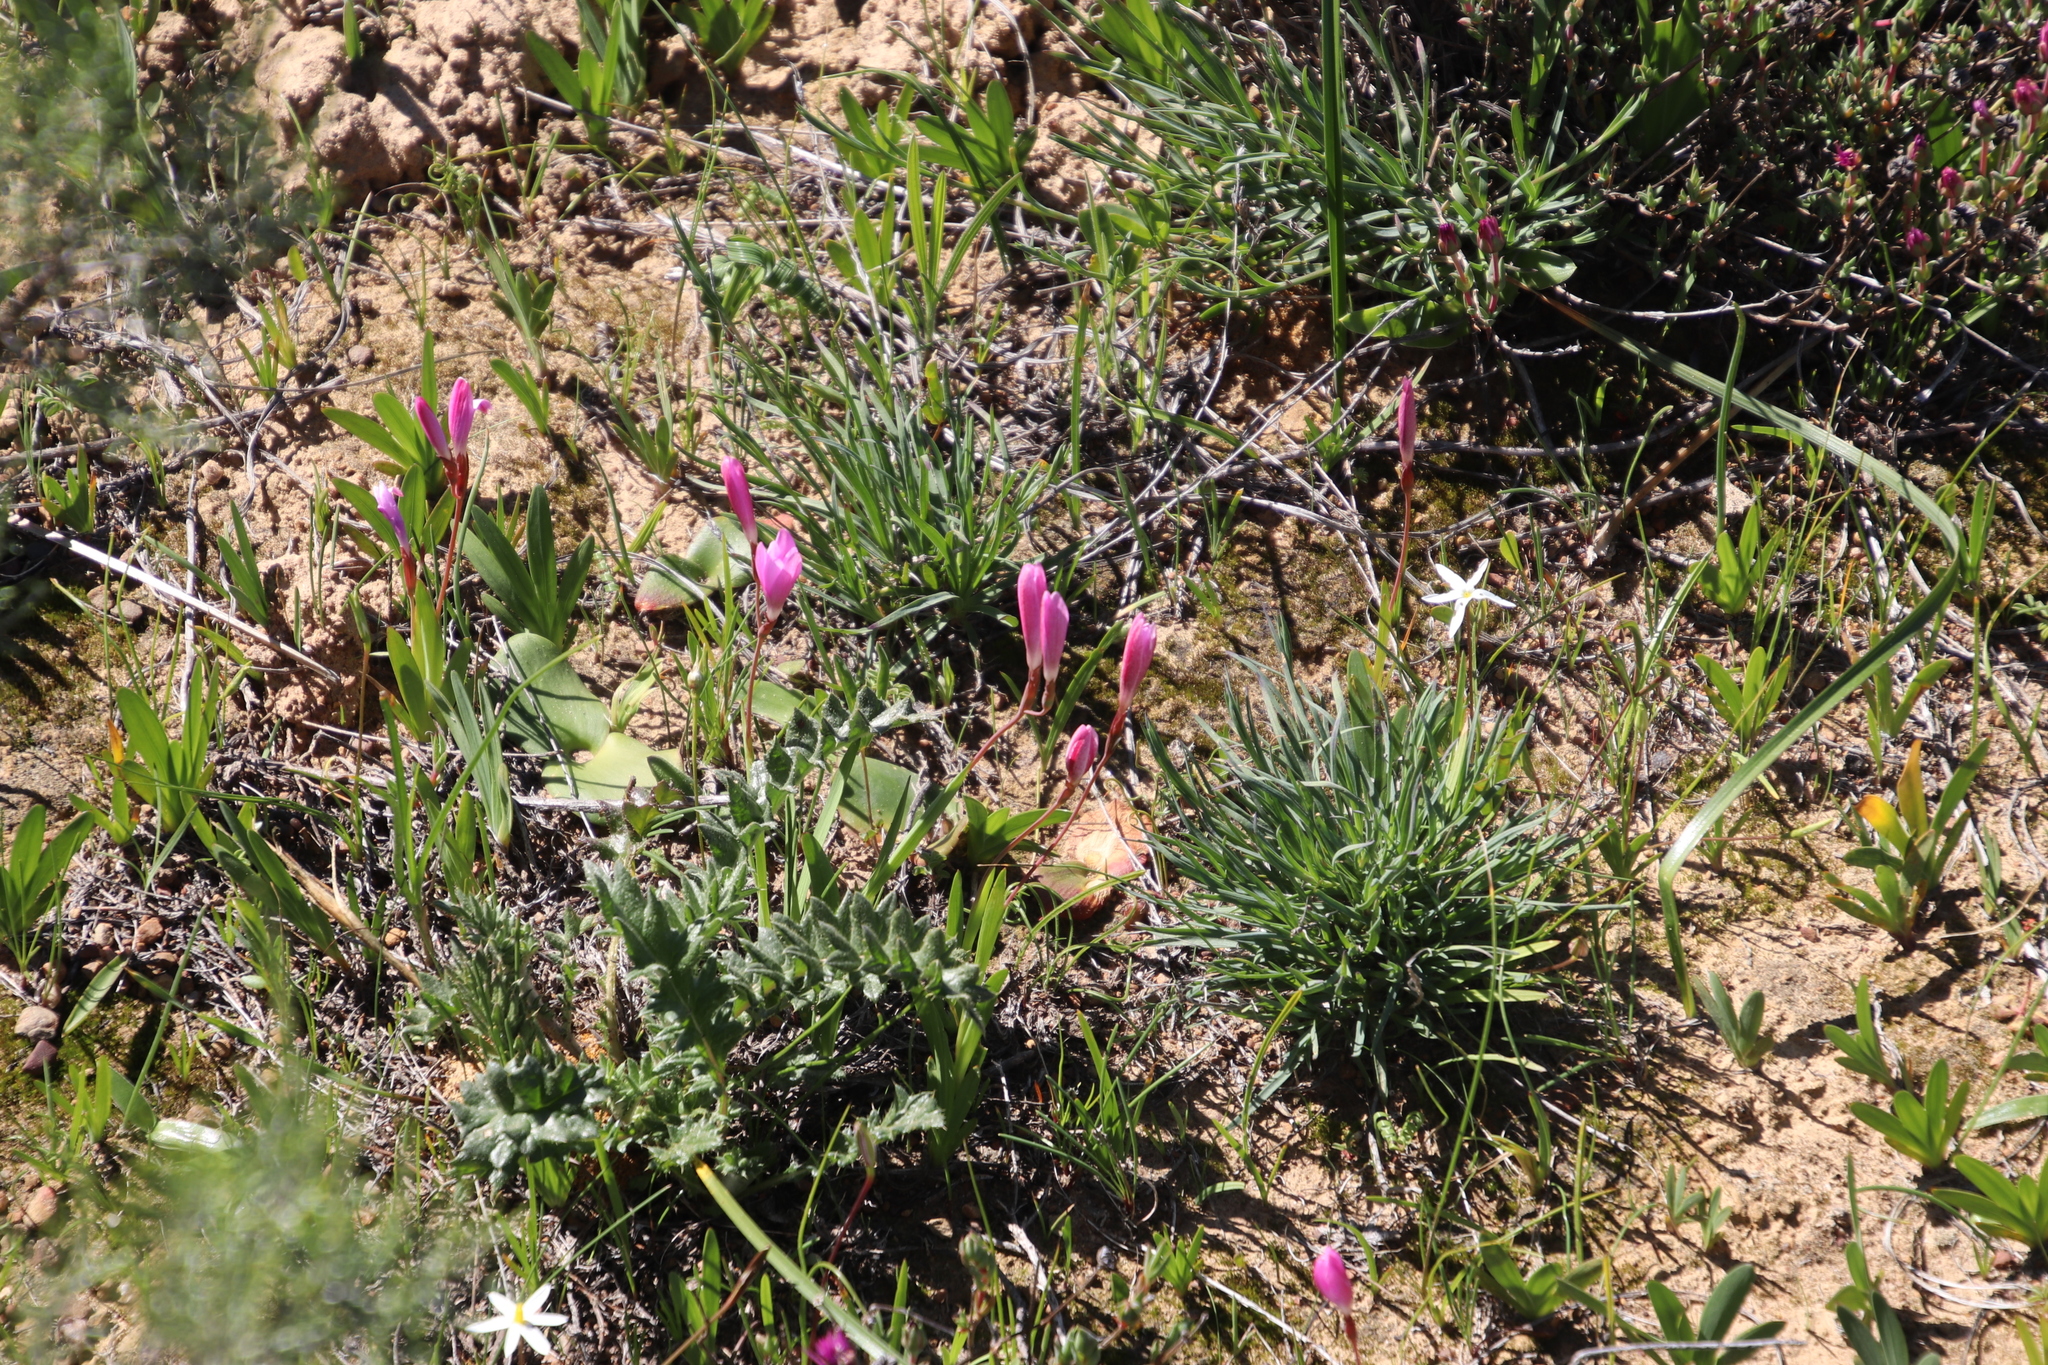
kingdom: Plantae
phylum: Tracheophyta
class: Liliopsida
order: Asparagales
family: Iridaceae
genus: Hesperantha
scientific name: Hesperantha pauciflora
